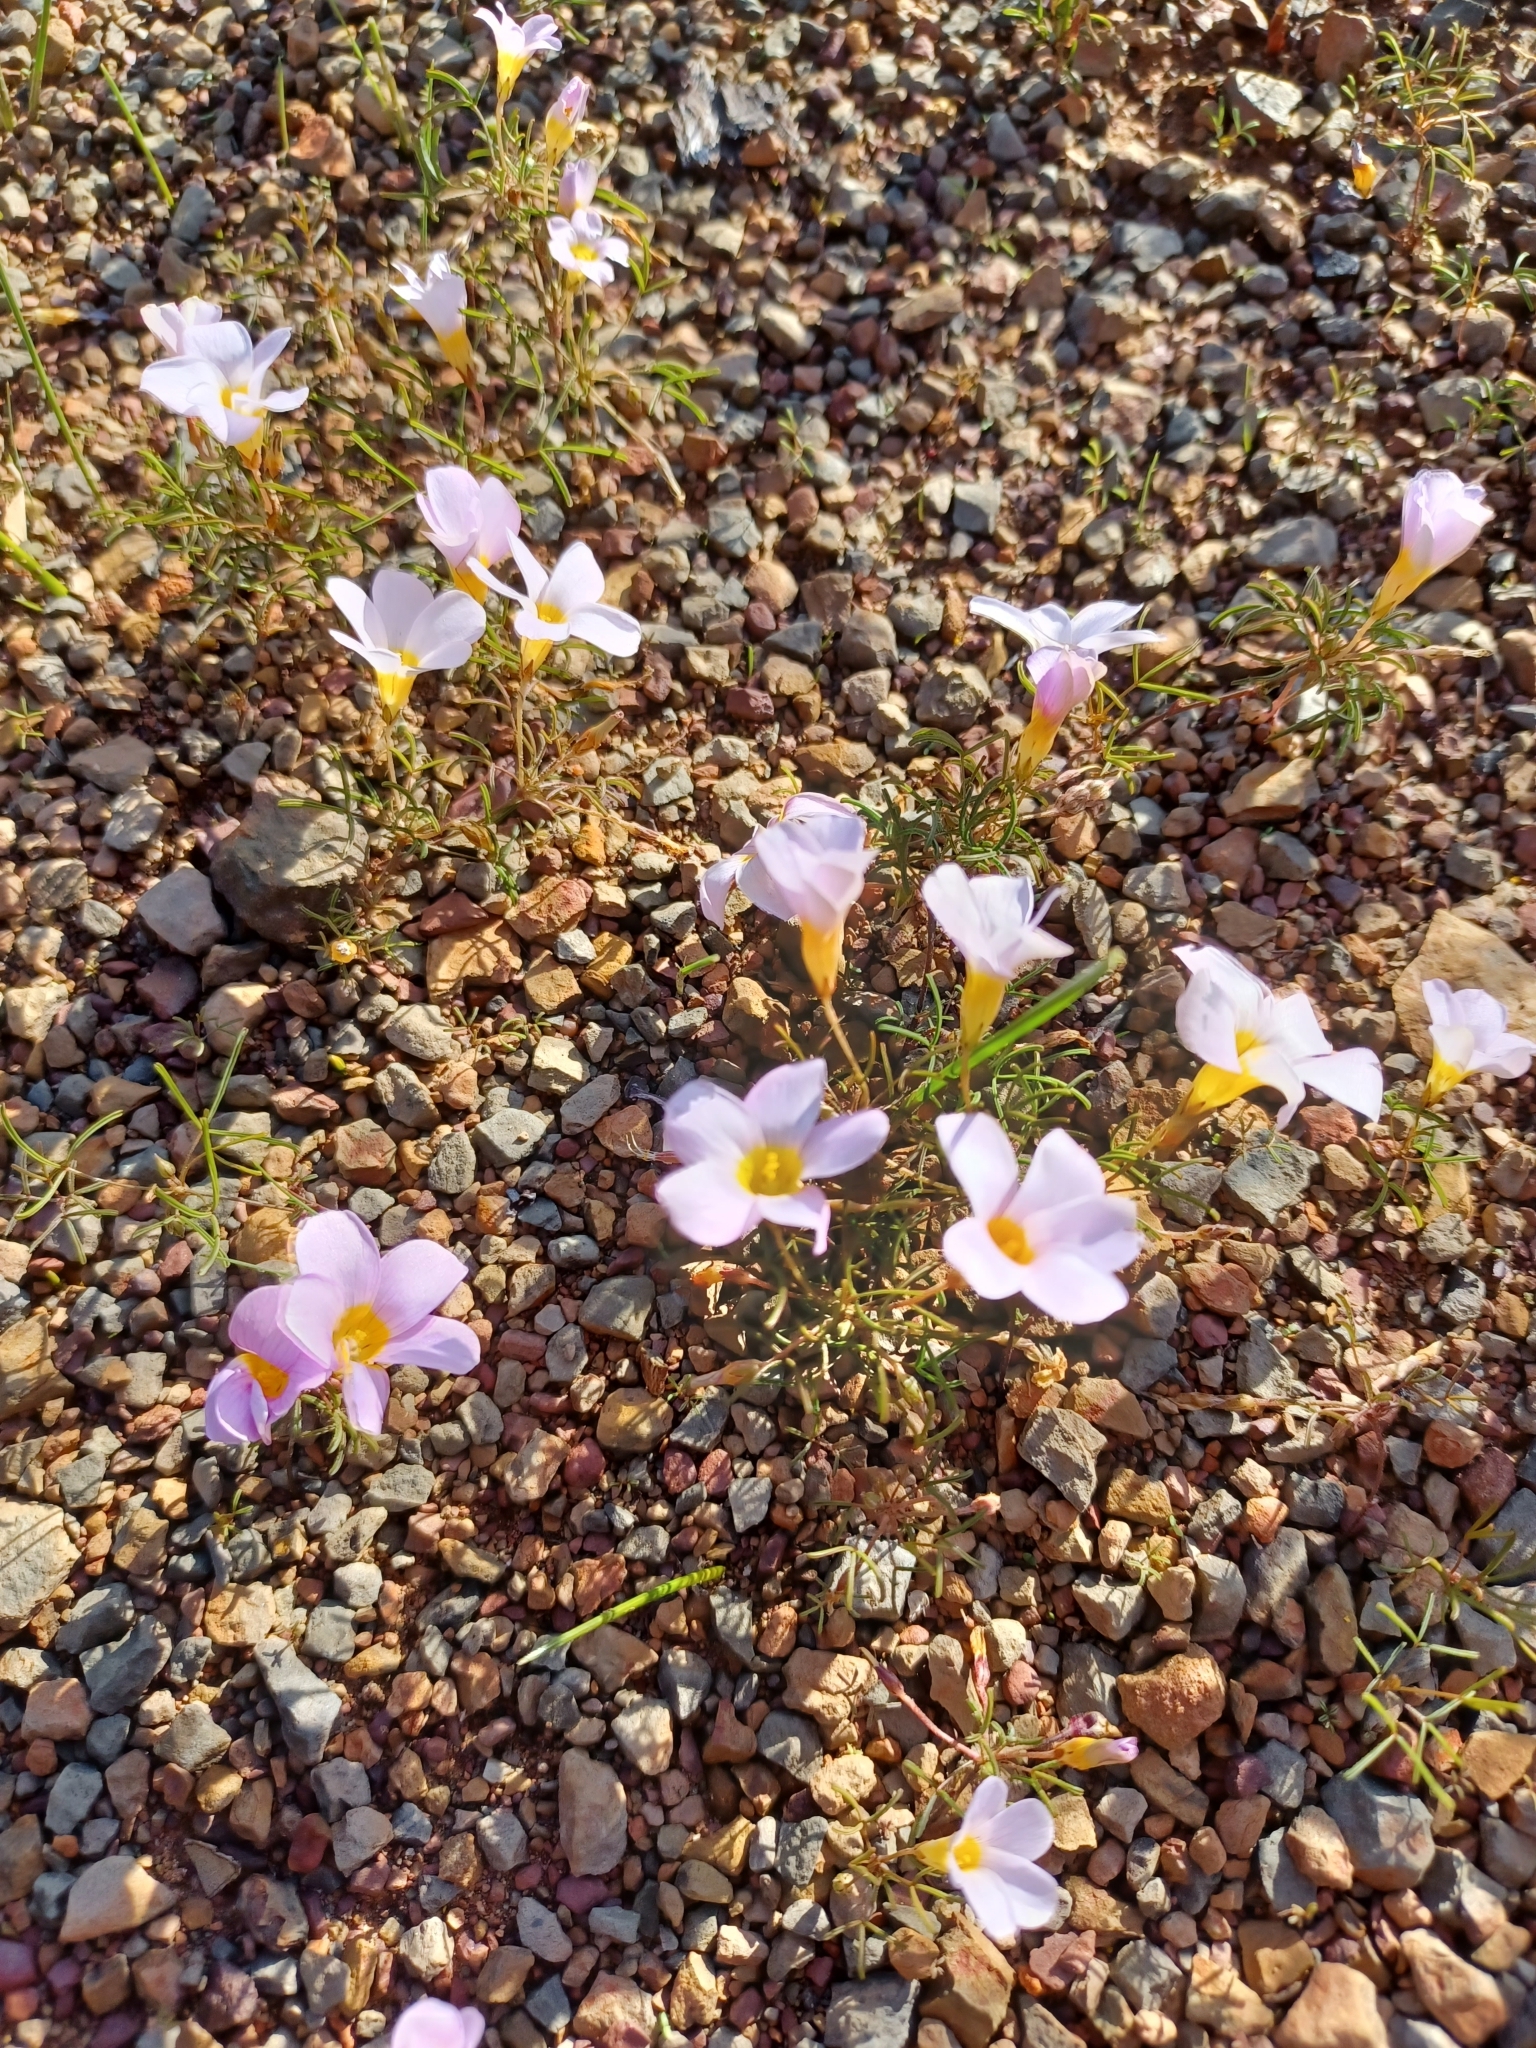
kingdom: Plantae
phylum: Tracheophyta
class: Magnoliopsida
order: Oxalidales
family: Oxalidaceae
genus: Oxalis
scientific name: Oxalis burkei
